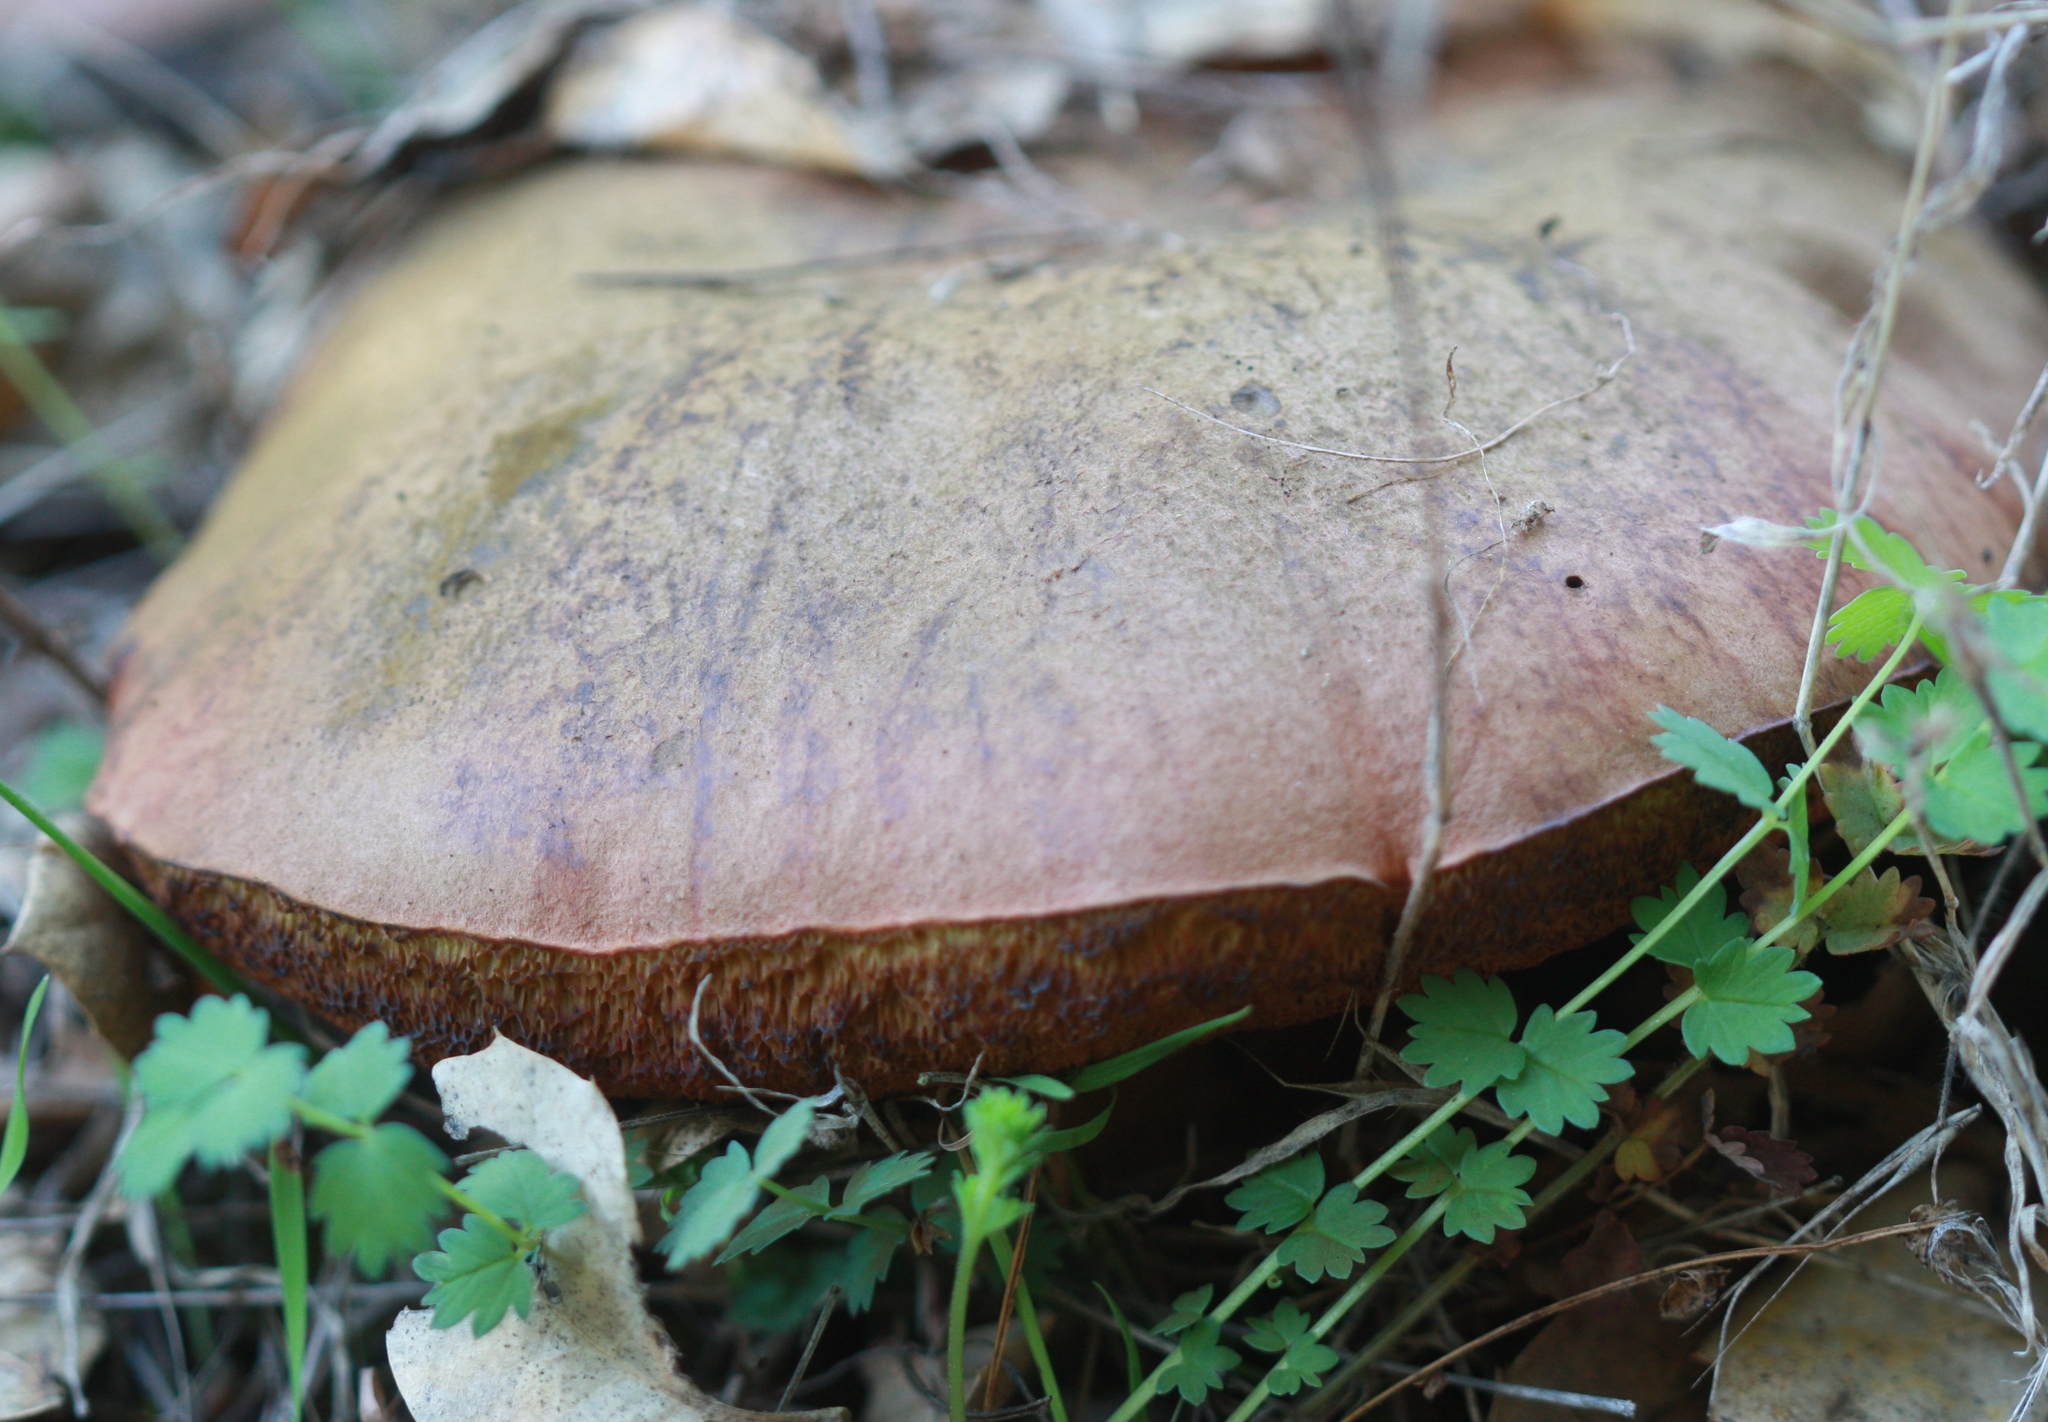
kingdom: Fungi
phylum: Basidiomycota
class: Agaricomycetes
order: Boletales
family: Boletaceae
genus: Suillellus
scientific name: Suillellus amygdalinus
